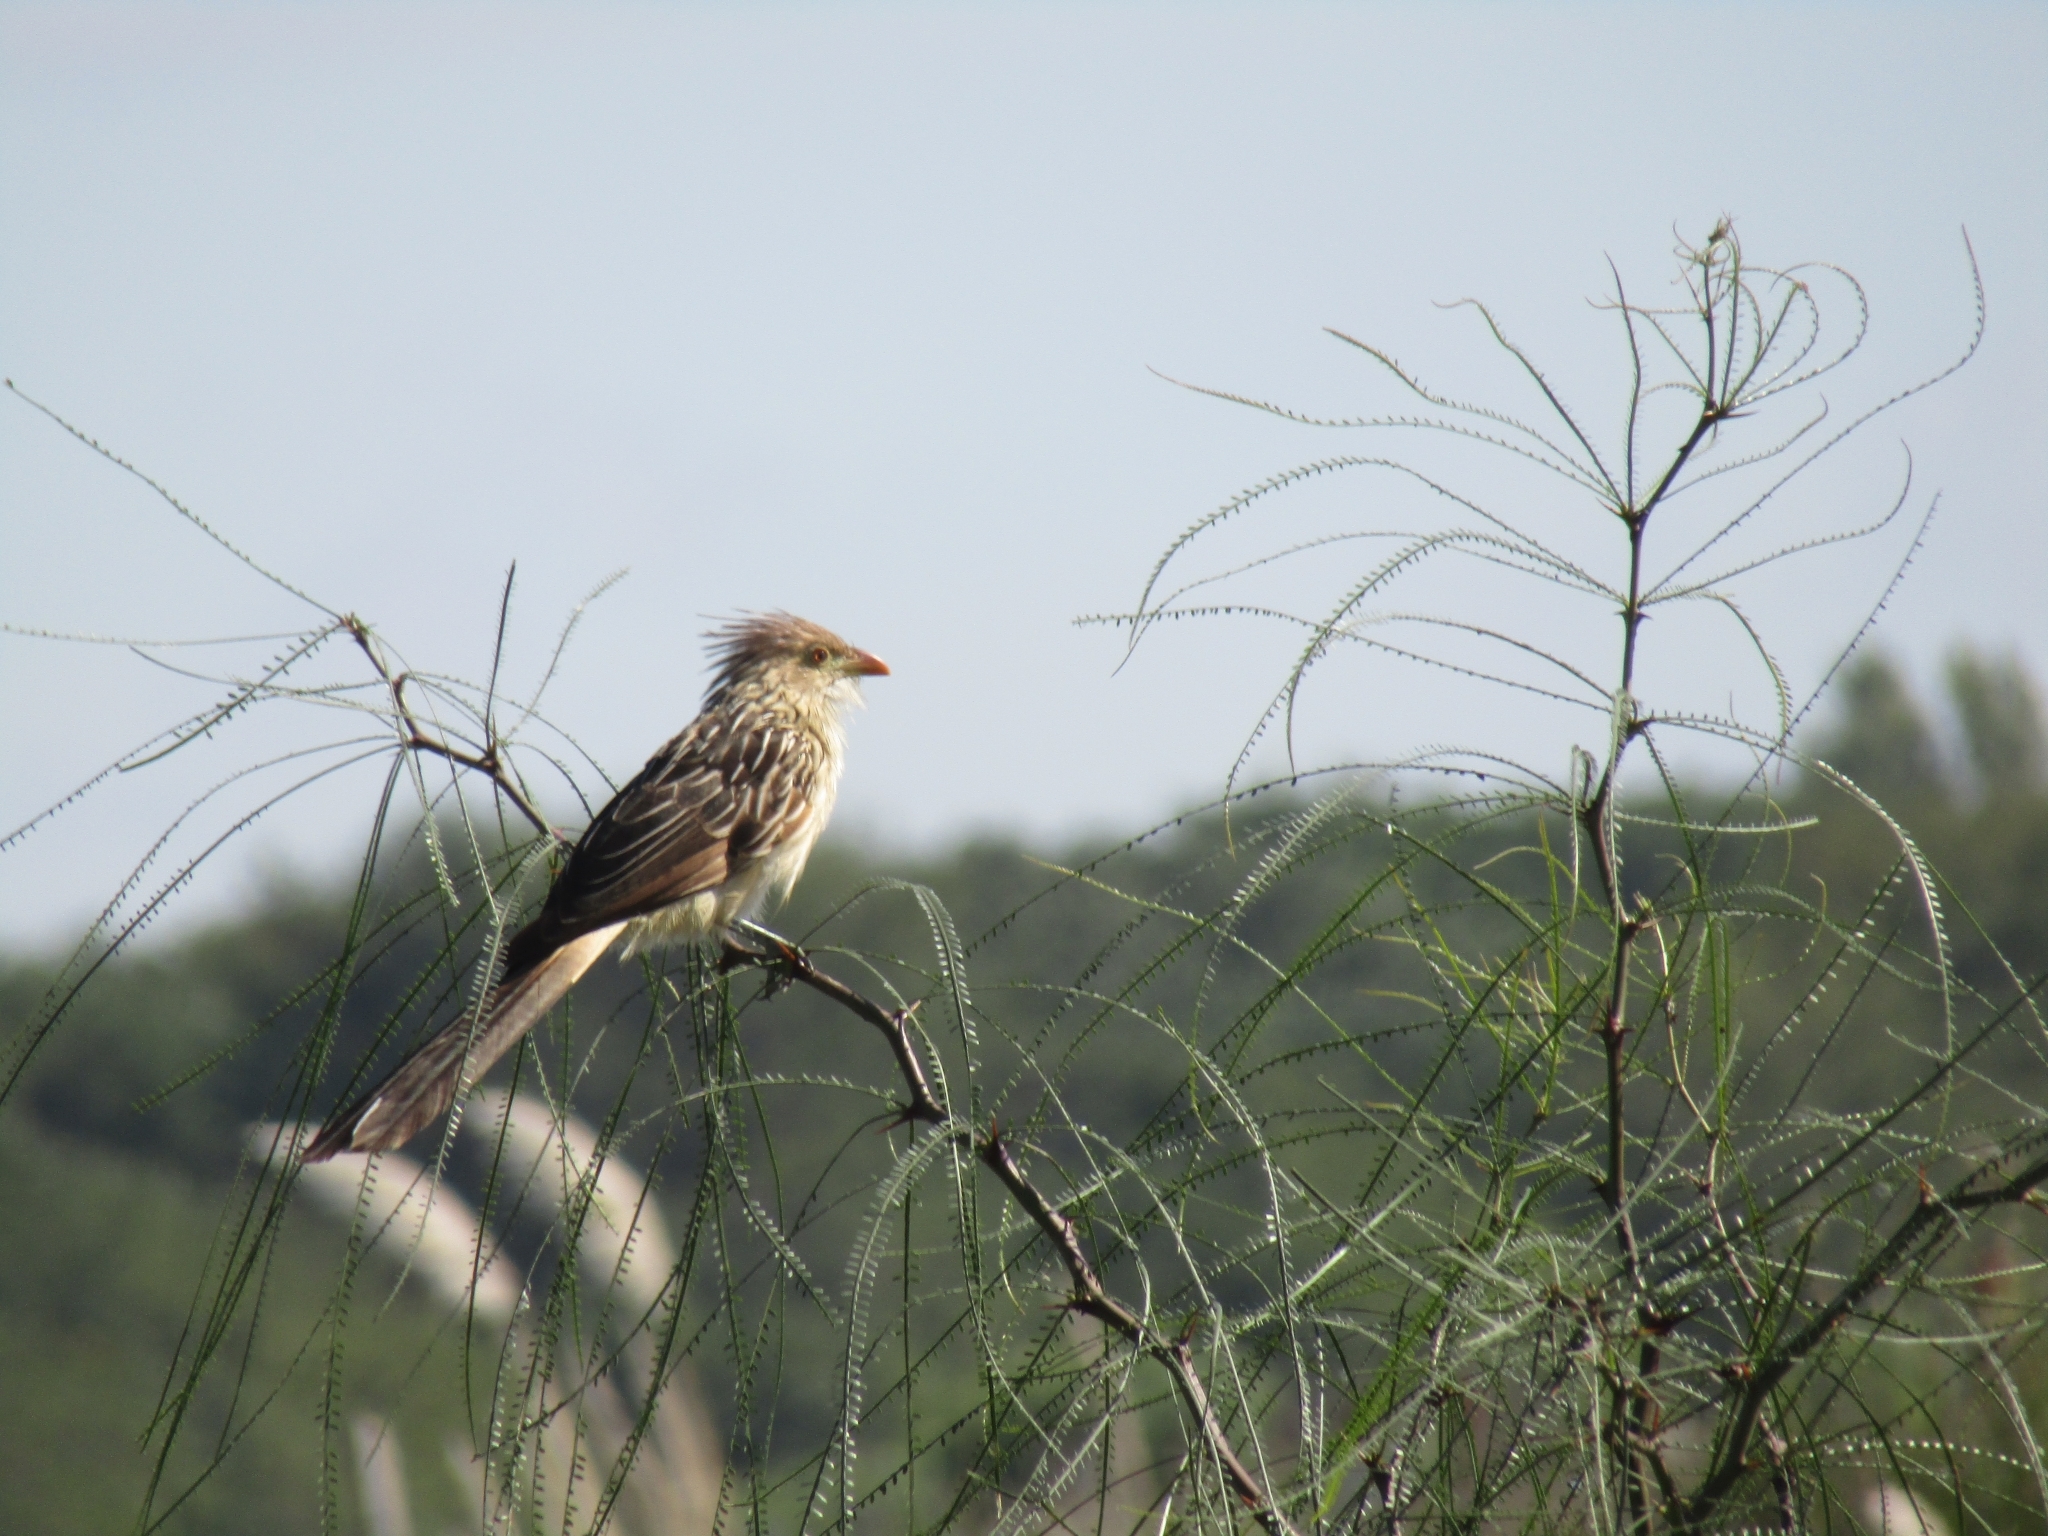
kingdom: Plantae
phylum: Tracheophyta
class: Magnoliopsida
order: Fabales
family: Fabaceae
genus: Parkinsonia
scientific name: Parkinsonia aculeata
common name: Jerusalem thorn
